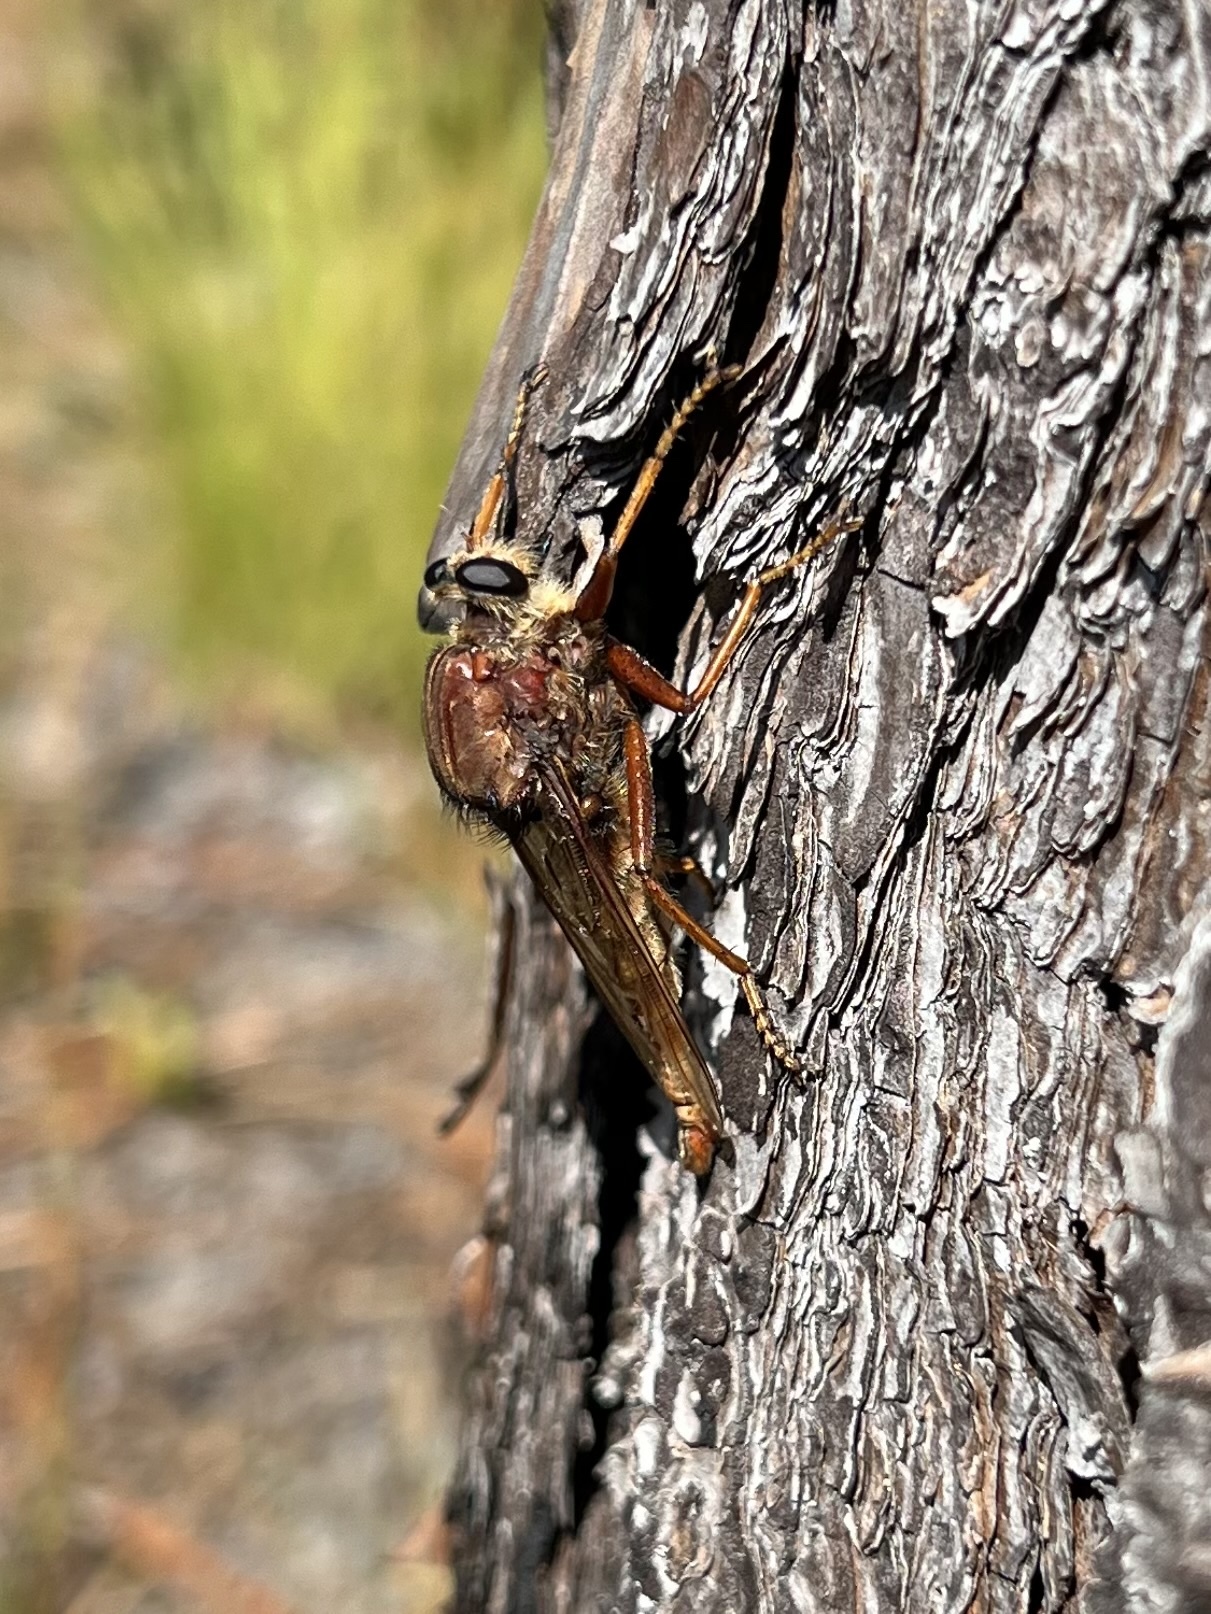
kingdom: Animalia
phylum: Arthropoda
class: Insecta
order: Diptera
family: Asilidae
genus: Proctacanthus
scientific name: Proctacanthus heros
